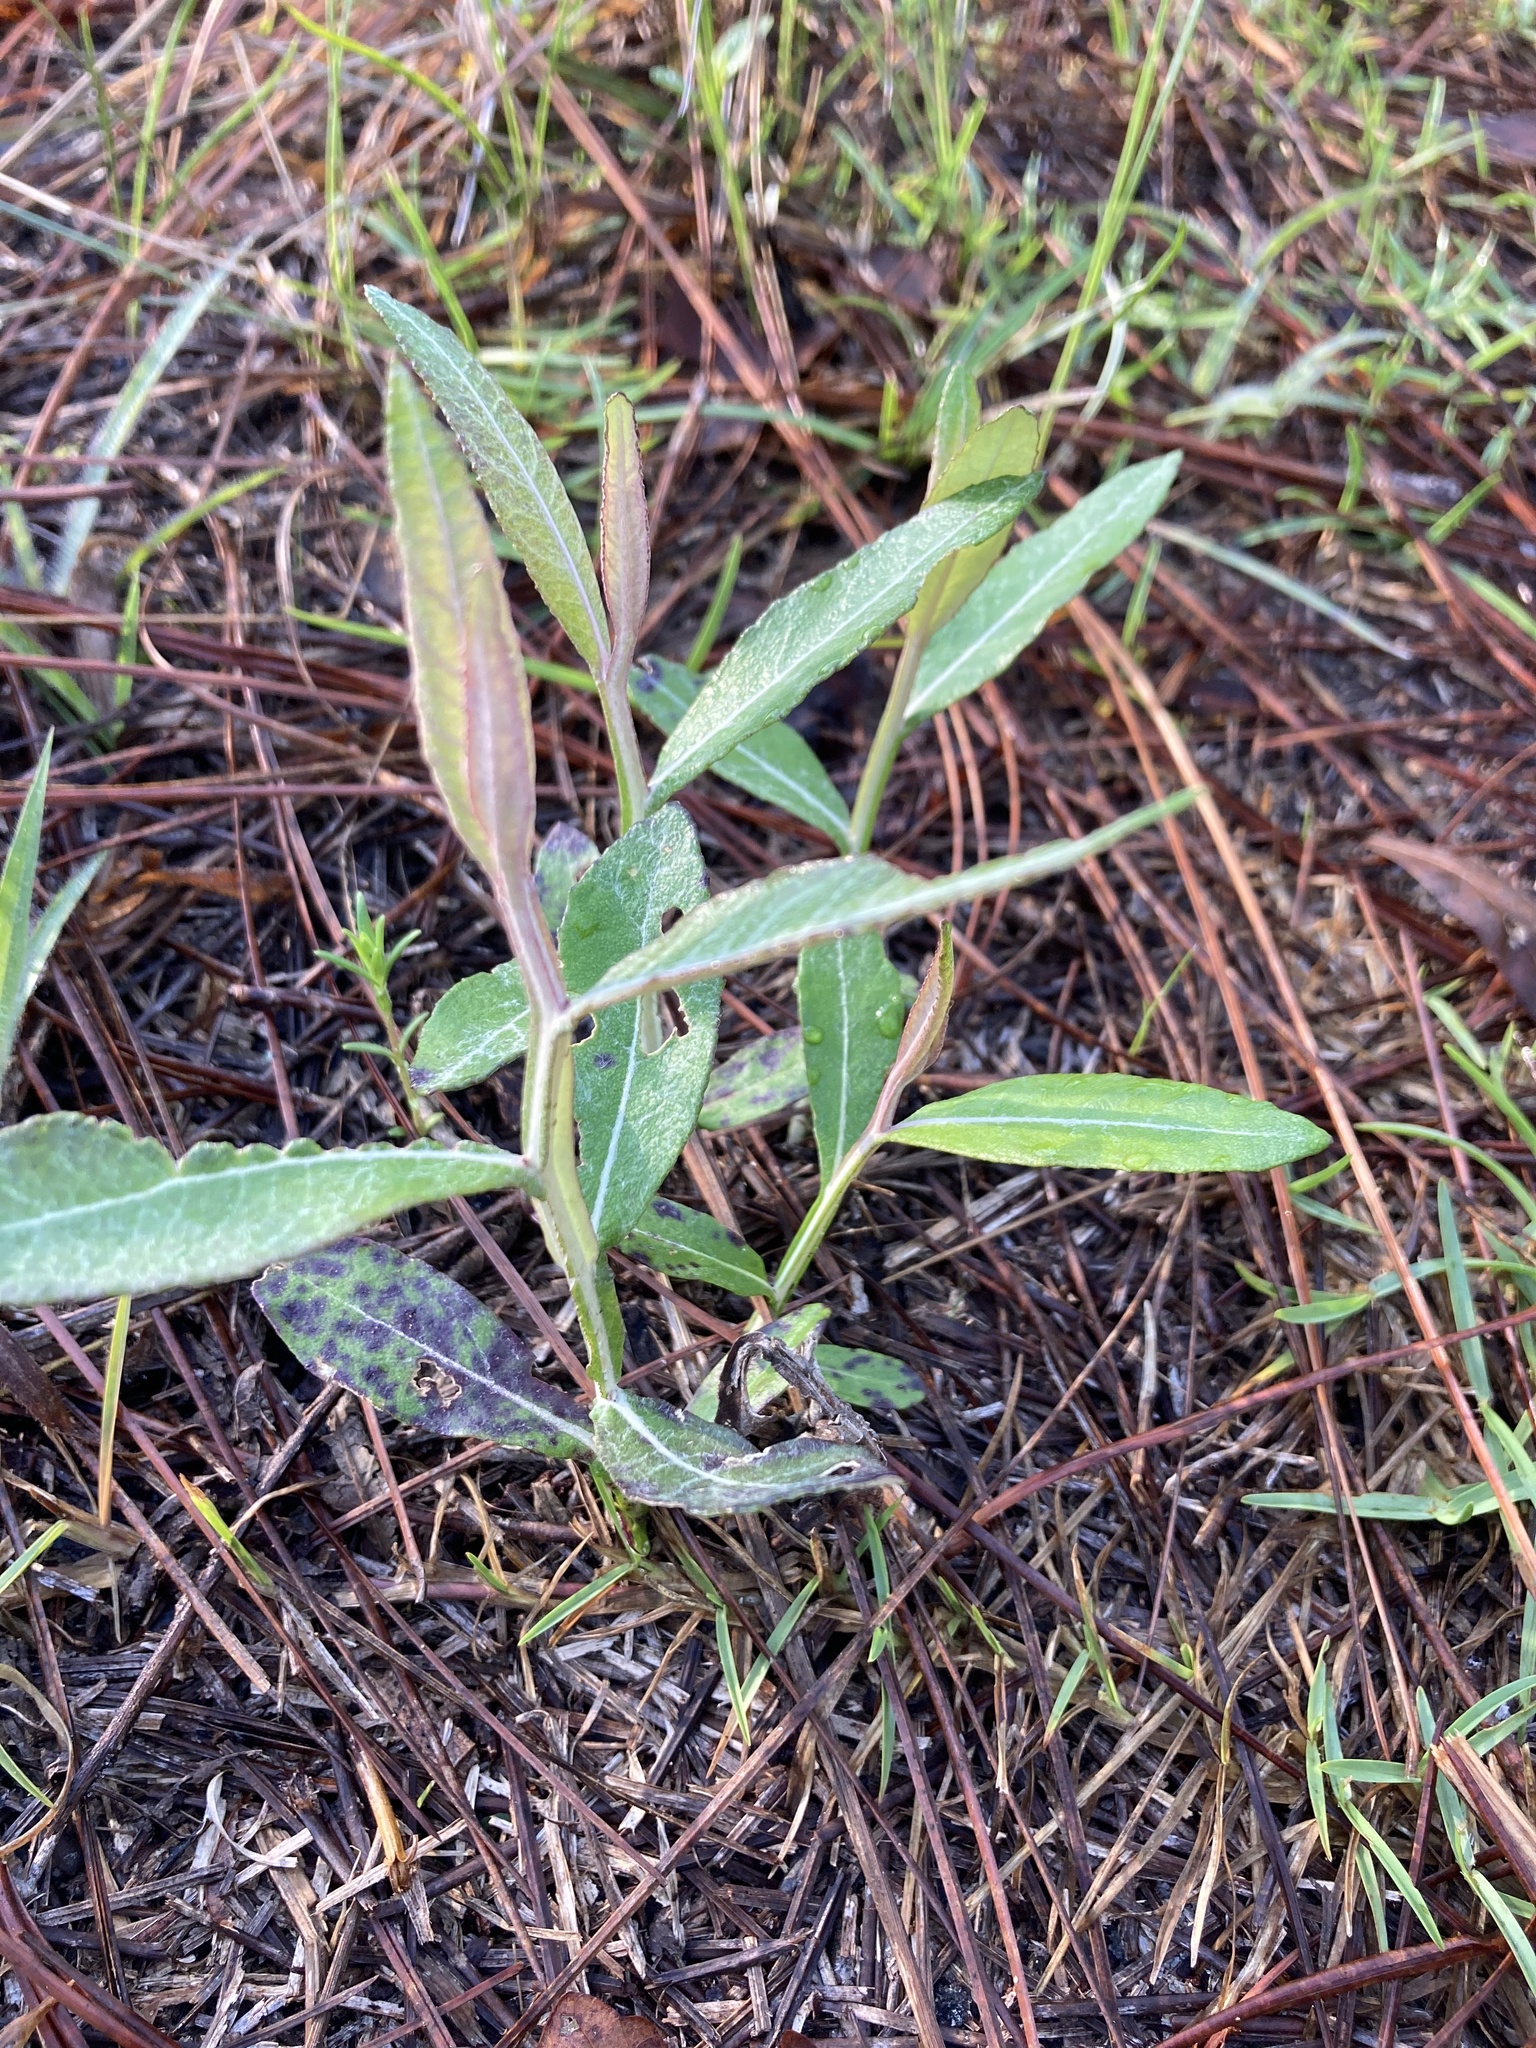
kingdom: Plantae
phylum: Tracheophyta
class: Magnoliopsida
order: Asterales
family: Asteraceae
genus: Pterocaulon
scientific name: Pterocaulon pycnostachyum
